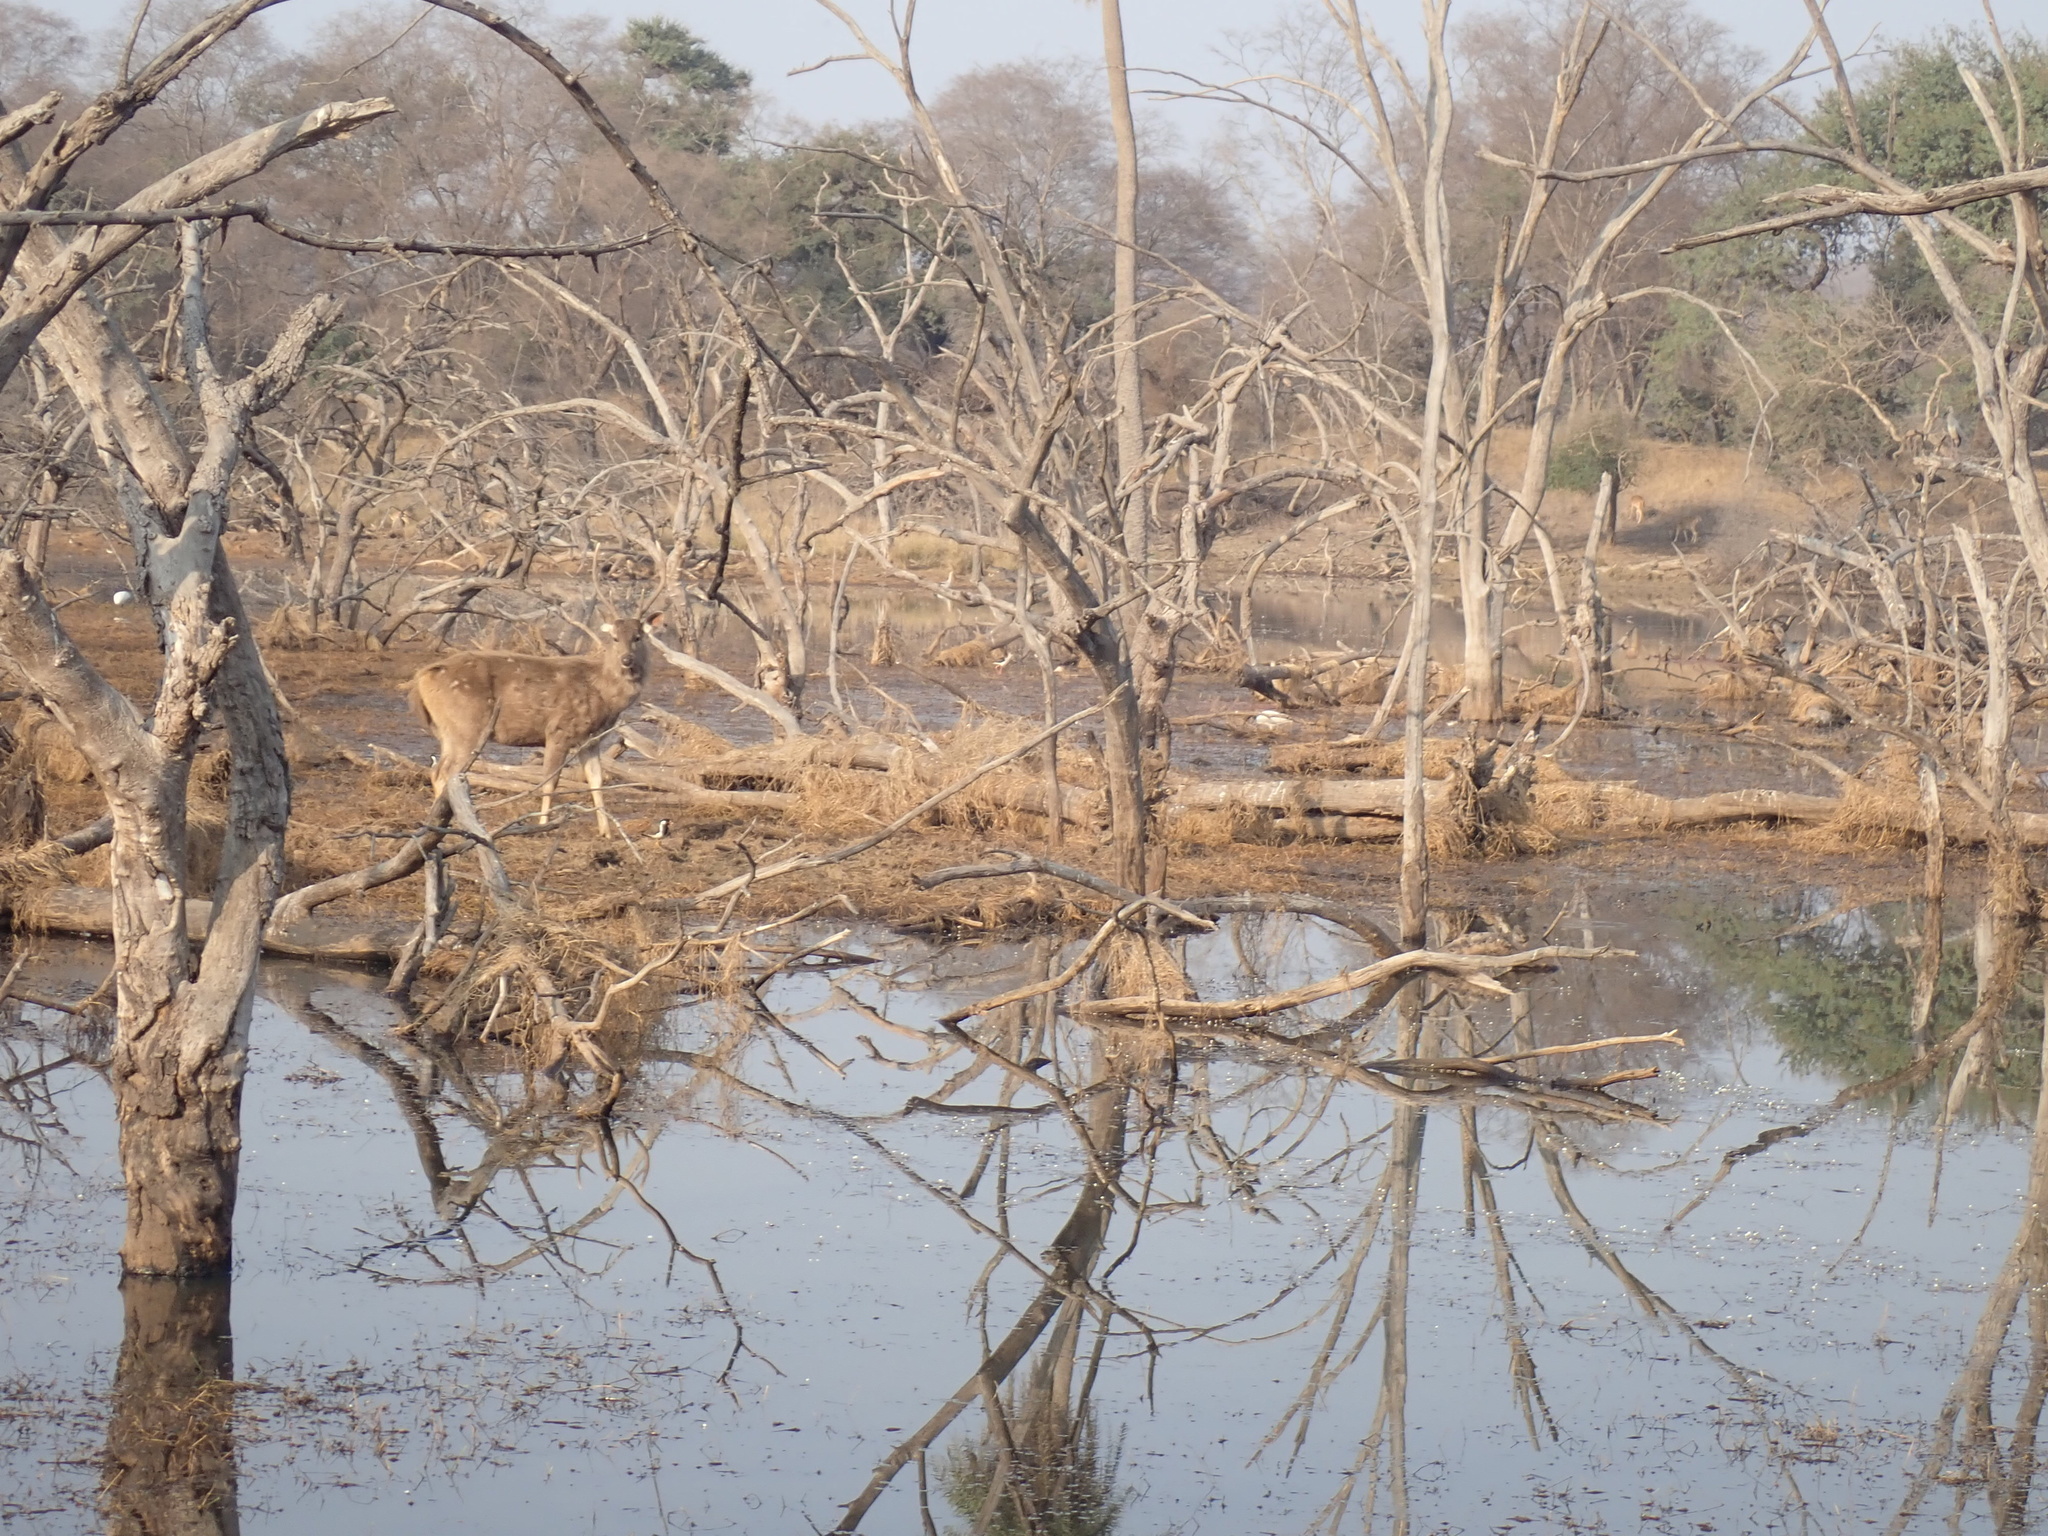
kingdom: Animalia
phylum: Chordata
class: Mammalia
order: Artiodactyla
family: Cervidae
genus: Rusa
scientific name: Rusa unicolor
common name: Sambar
